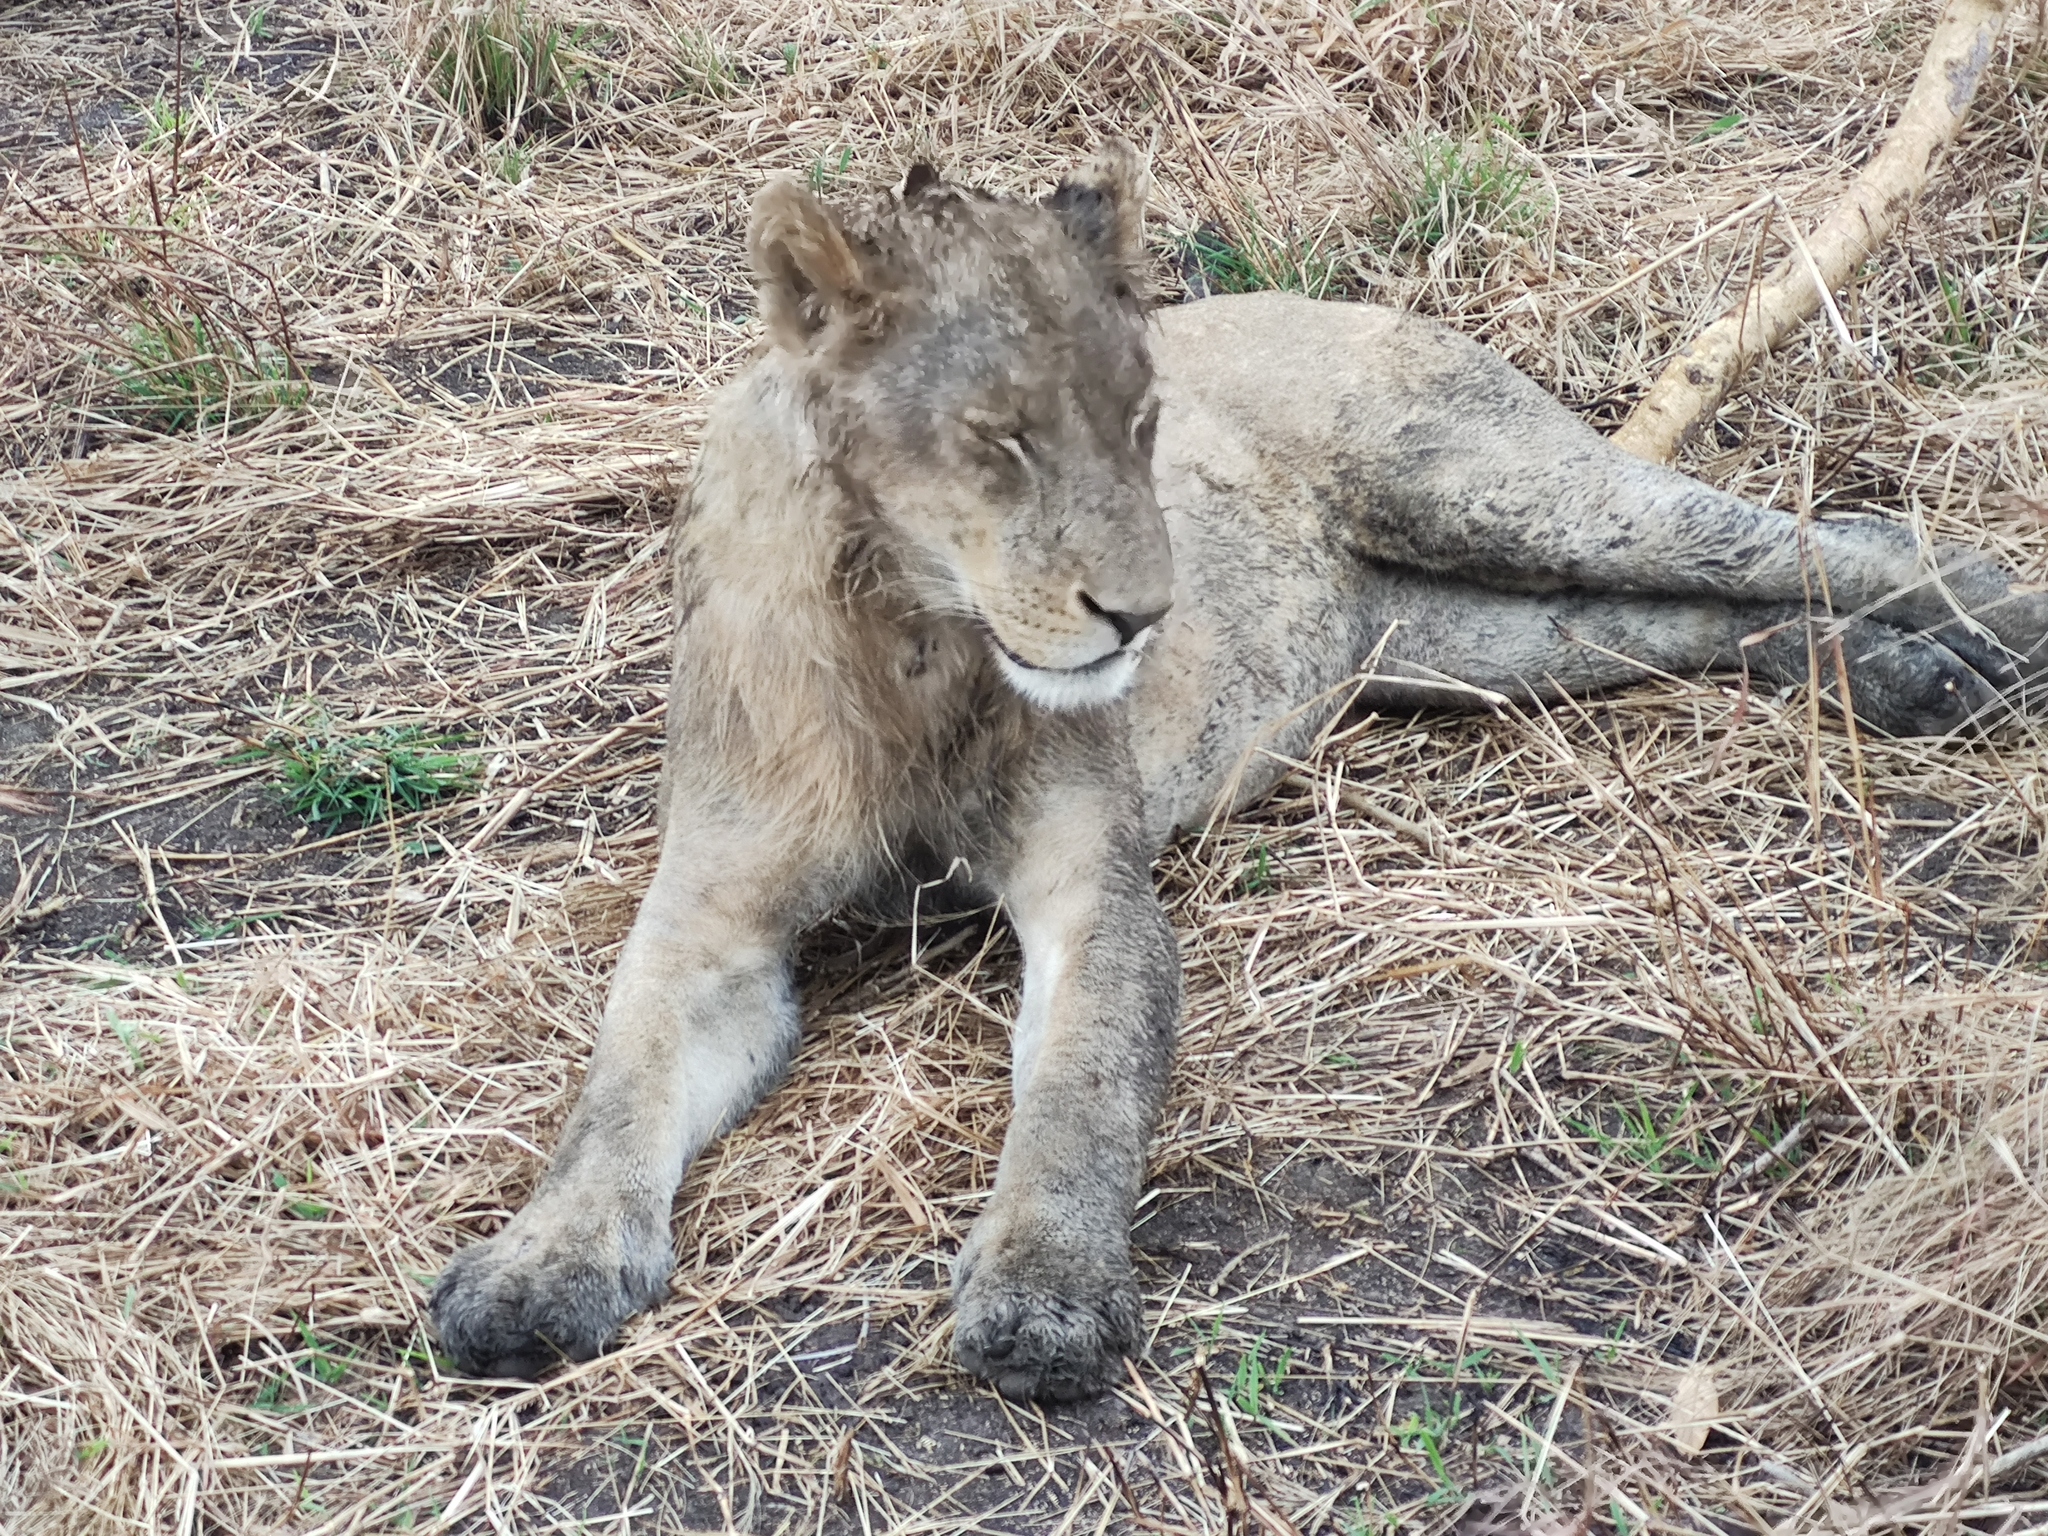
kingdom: Animalia
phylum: Chordata
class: Mammalia
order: Carnivora
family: Felidae
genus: Panthera
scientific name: Panthera leo
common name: Lion
